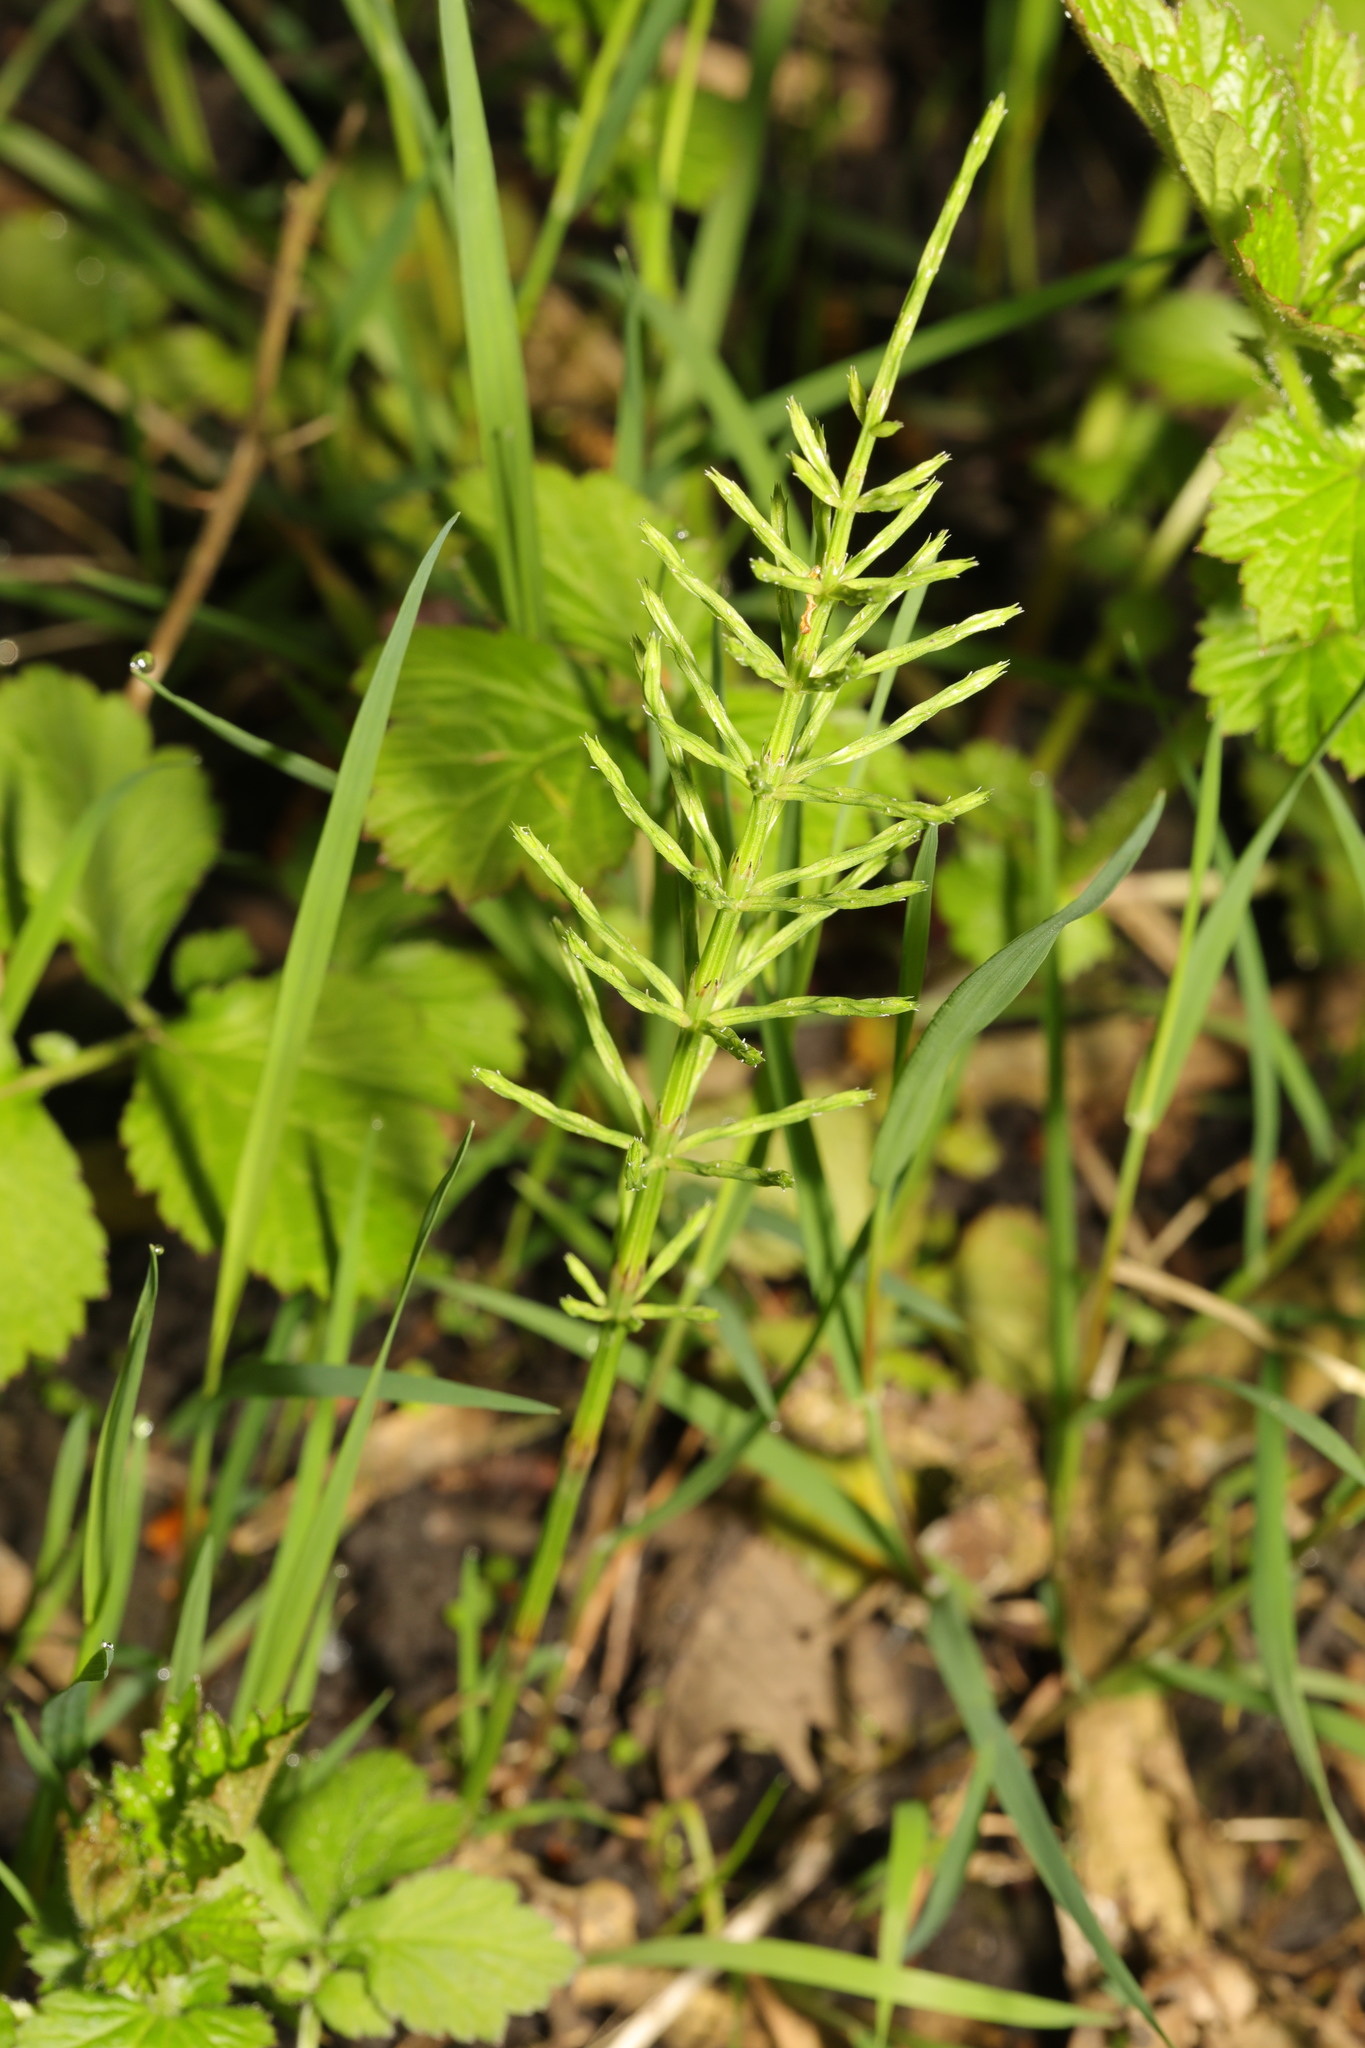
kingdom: Plantae
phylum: Tracheophyta
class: Polypodiopsida
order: Equisetales
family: Equisetaceae
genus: Equisetum
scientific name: Equisetum arvense
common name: Field horsetail
